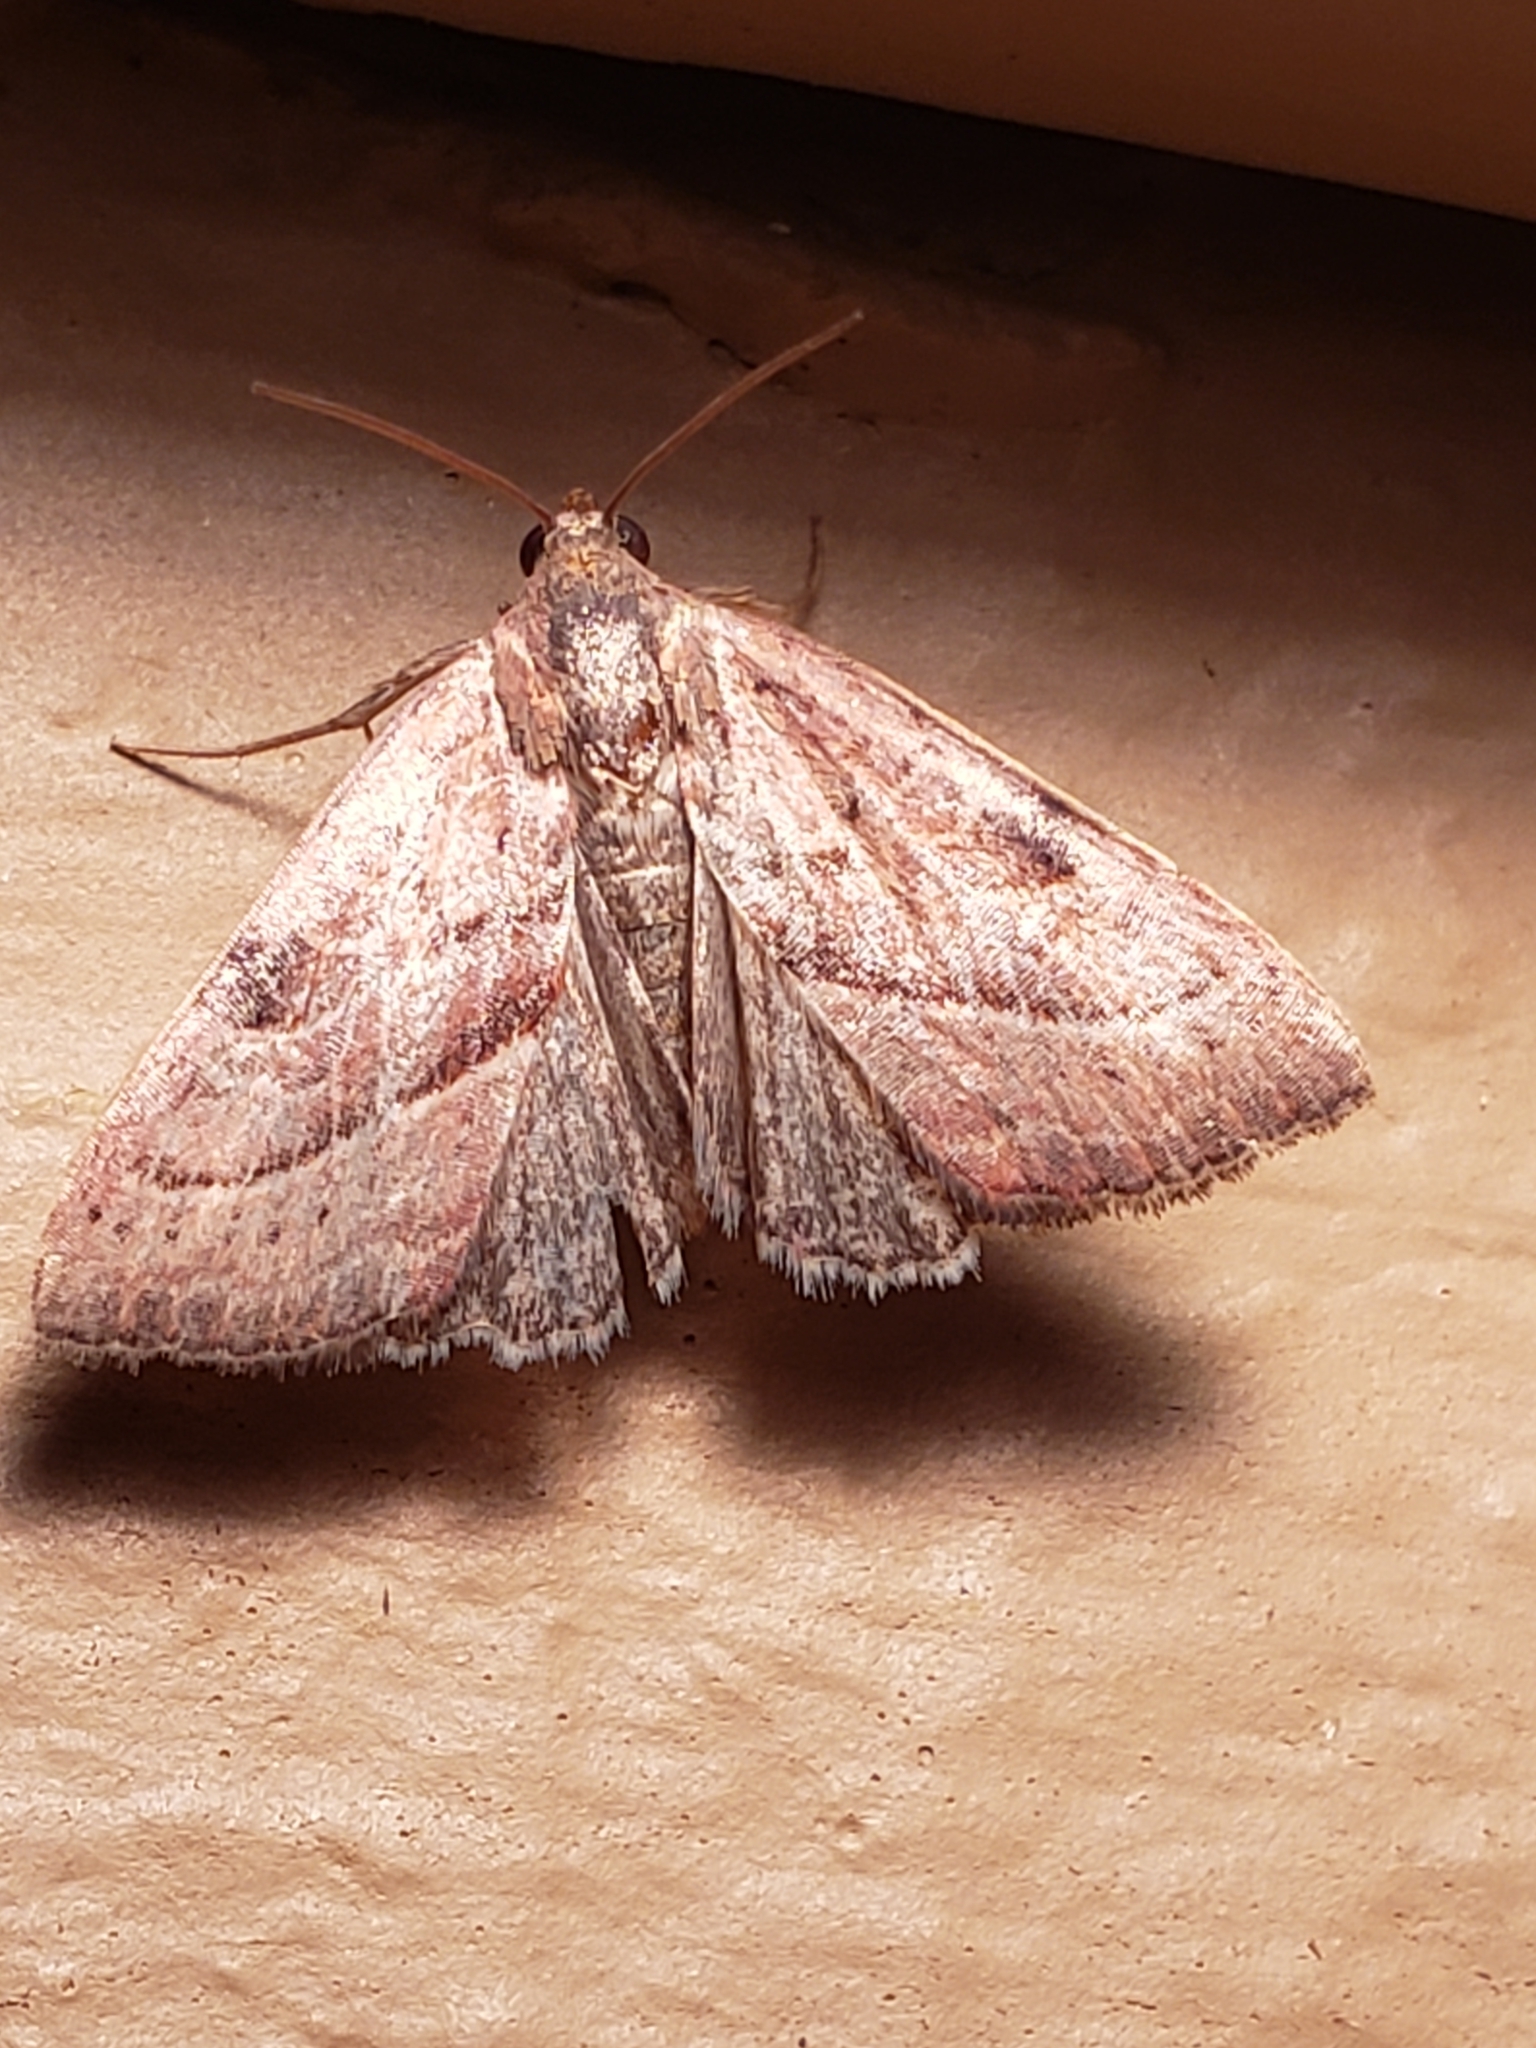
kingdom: Animalia
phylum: Arthropoda
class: Insecta
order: Lepidoptera
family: Noctuidae
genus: Galgula
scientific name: Galgula partita
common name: Wedgeling
